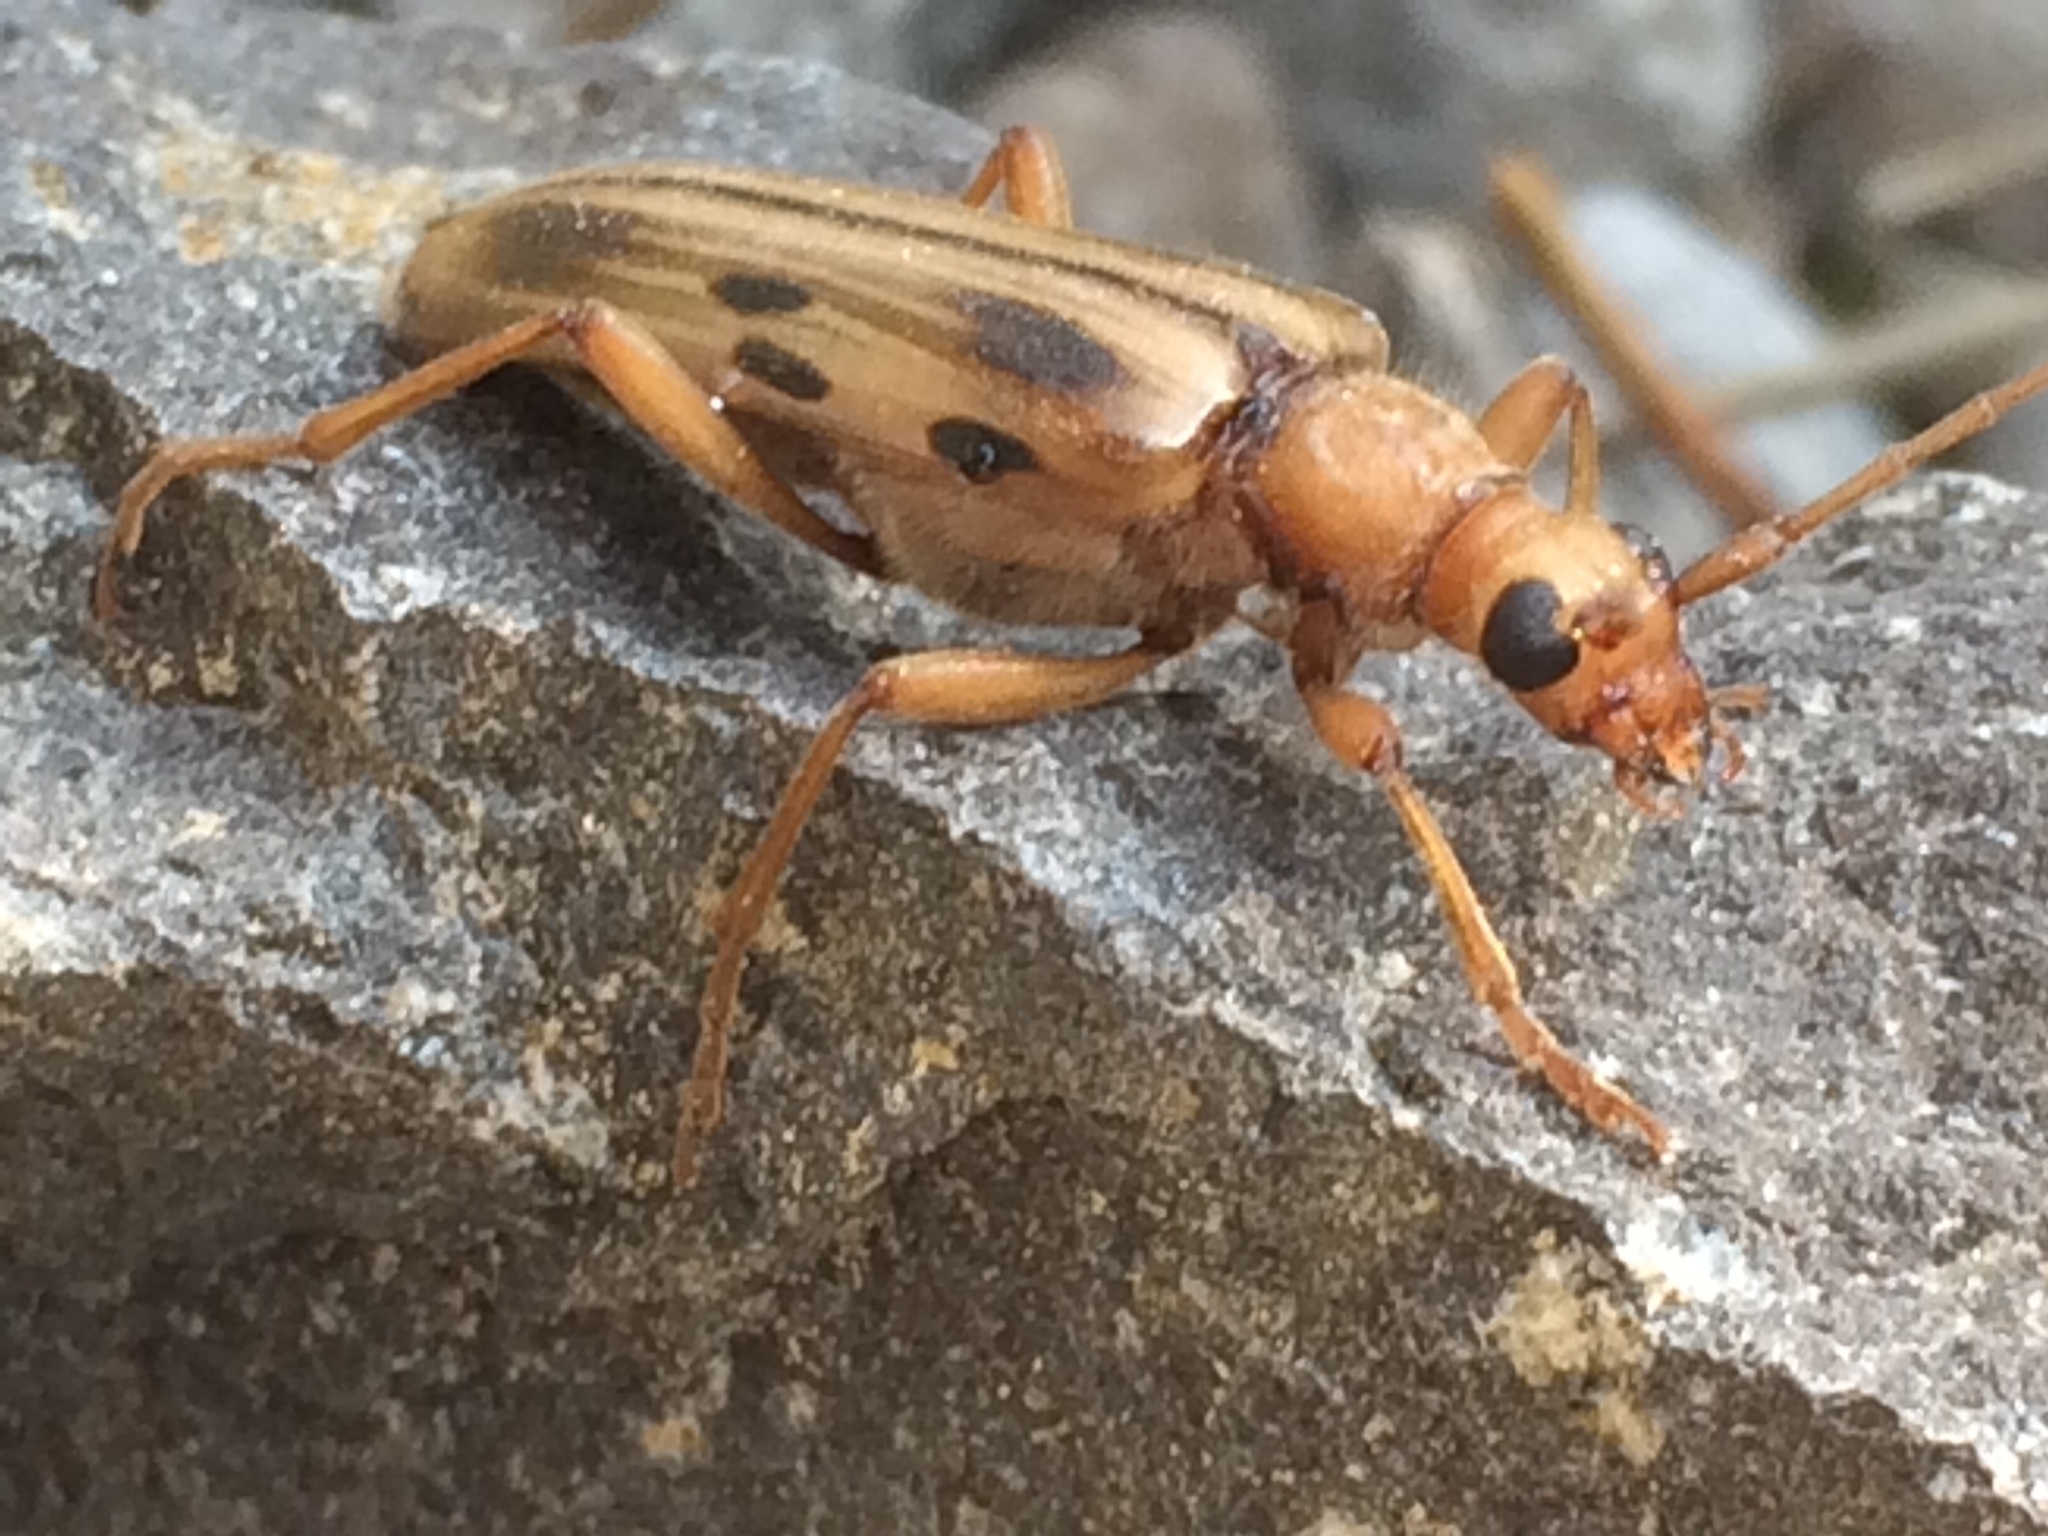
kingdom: Animalia
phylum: Arthropoda
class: Insecta
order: Coleoptera
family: Cerambycidae
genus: Ortholeptura
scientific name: Ortholeptura valida
